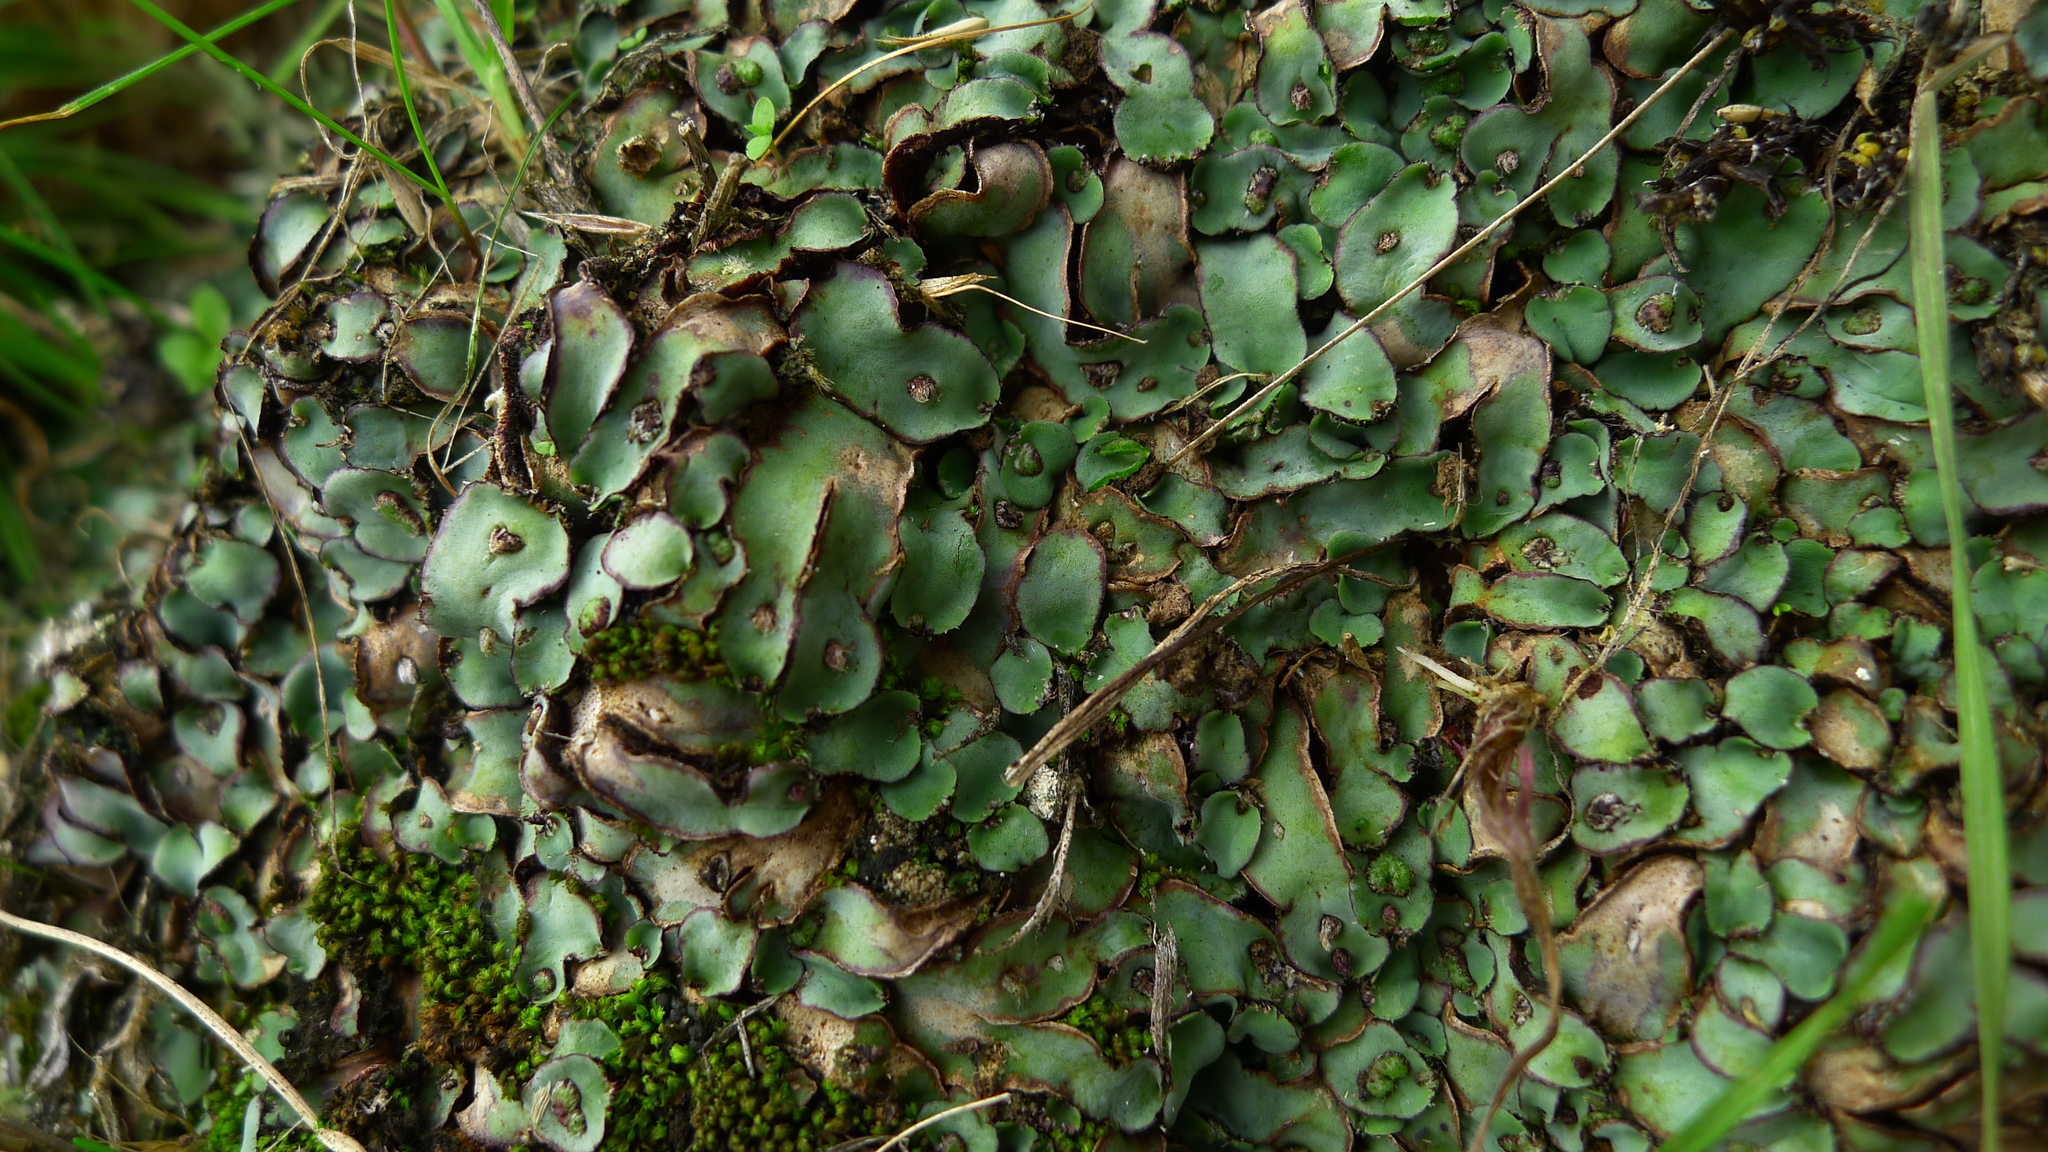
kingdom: Plantae
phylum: Marchantiophyta
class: Marchantiopsida
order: Marchantiales
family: Aytoniaceae
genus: Plagiochasma
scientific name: Plagiochasma rupestre
